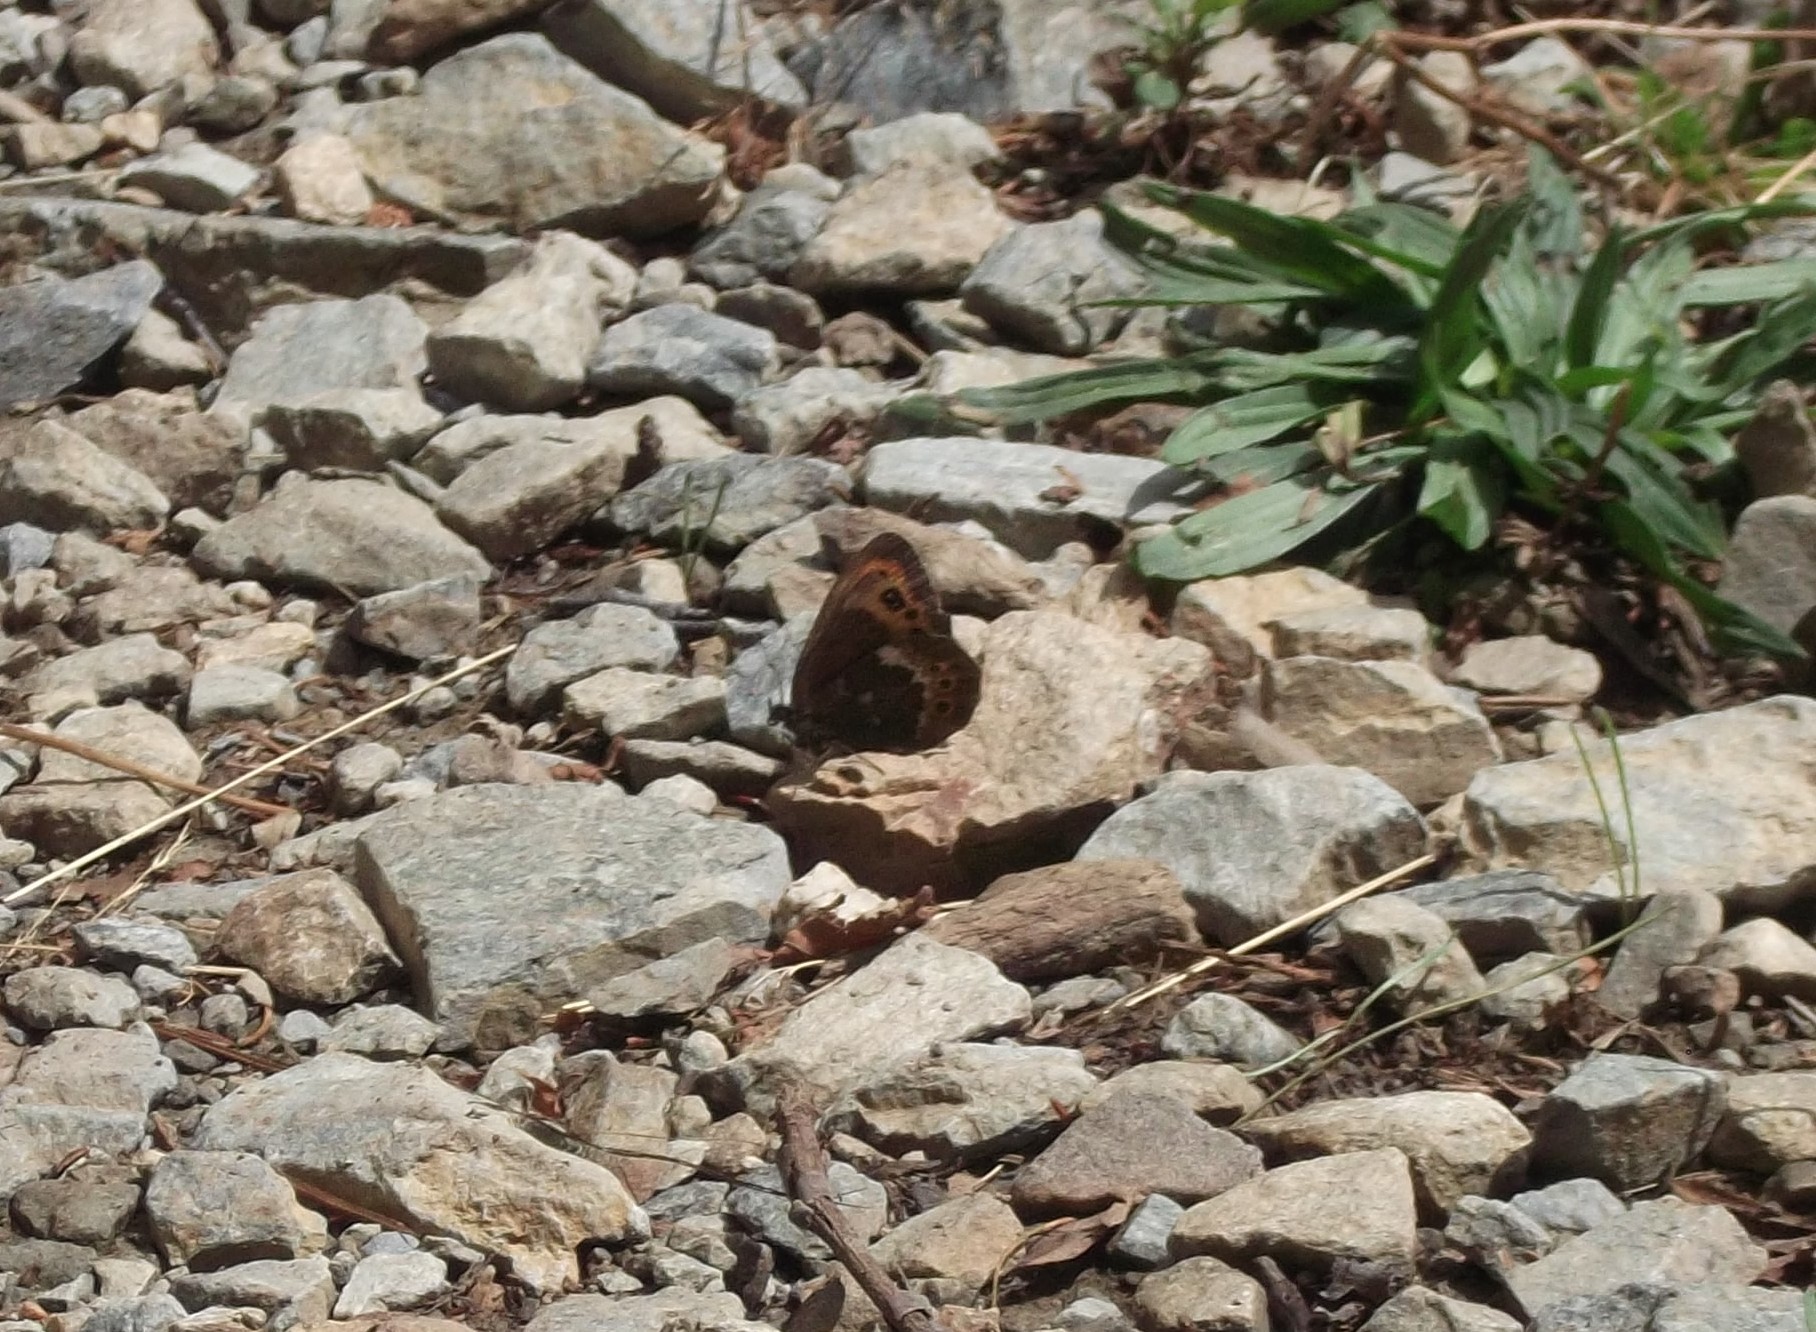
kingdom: Animalia
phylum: Arthropoda
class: Insecta
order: Lepidoptera
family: Nymphalidae
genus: Erebia
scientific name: Erebia ligea
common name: Arran brown
